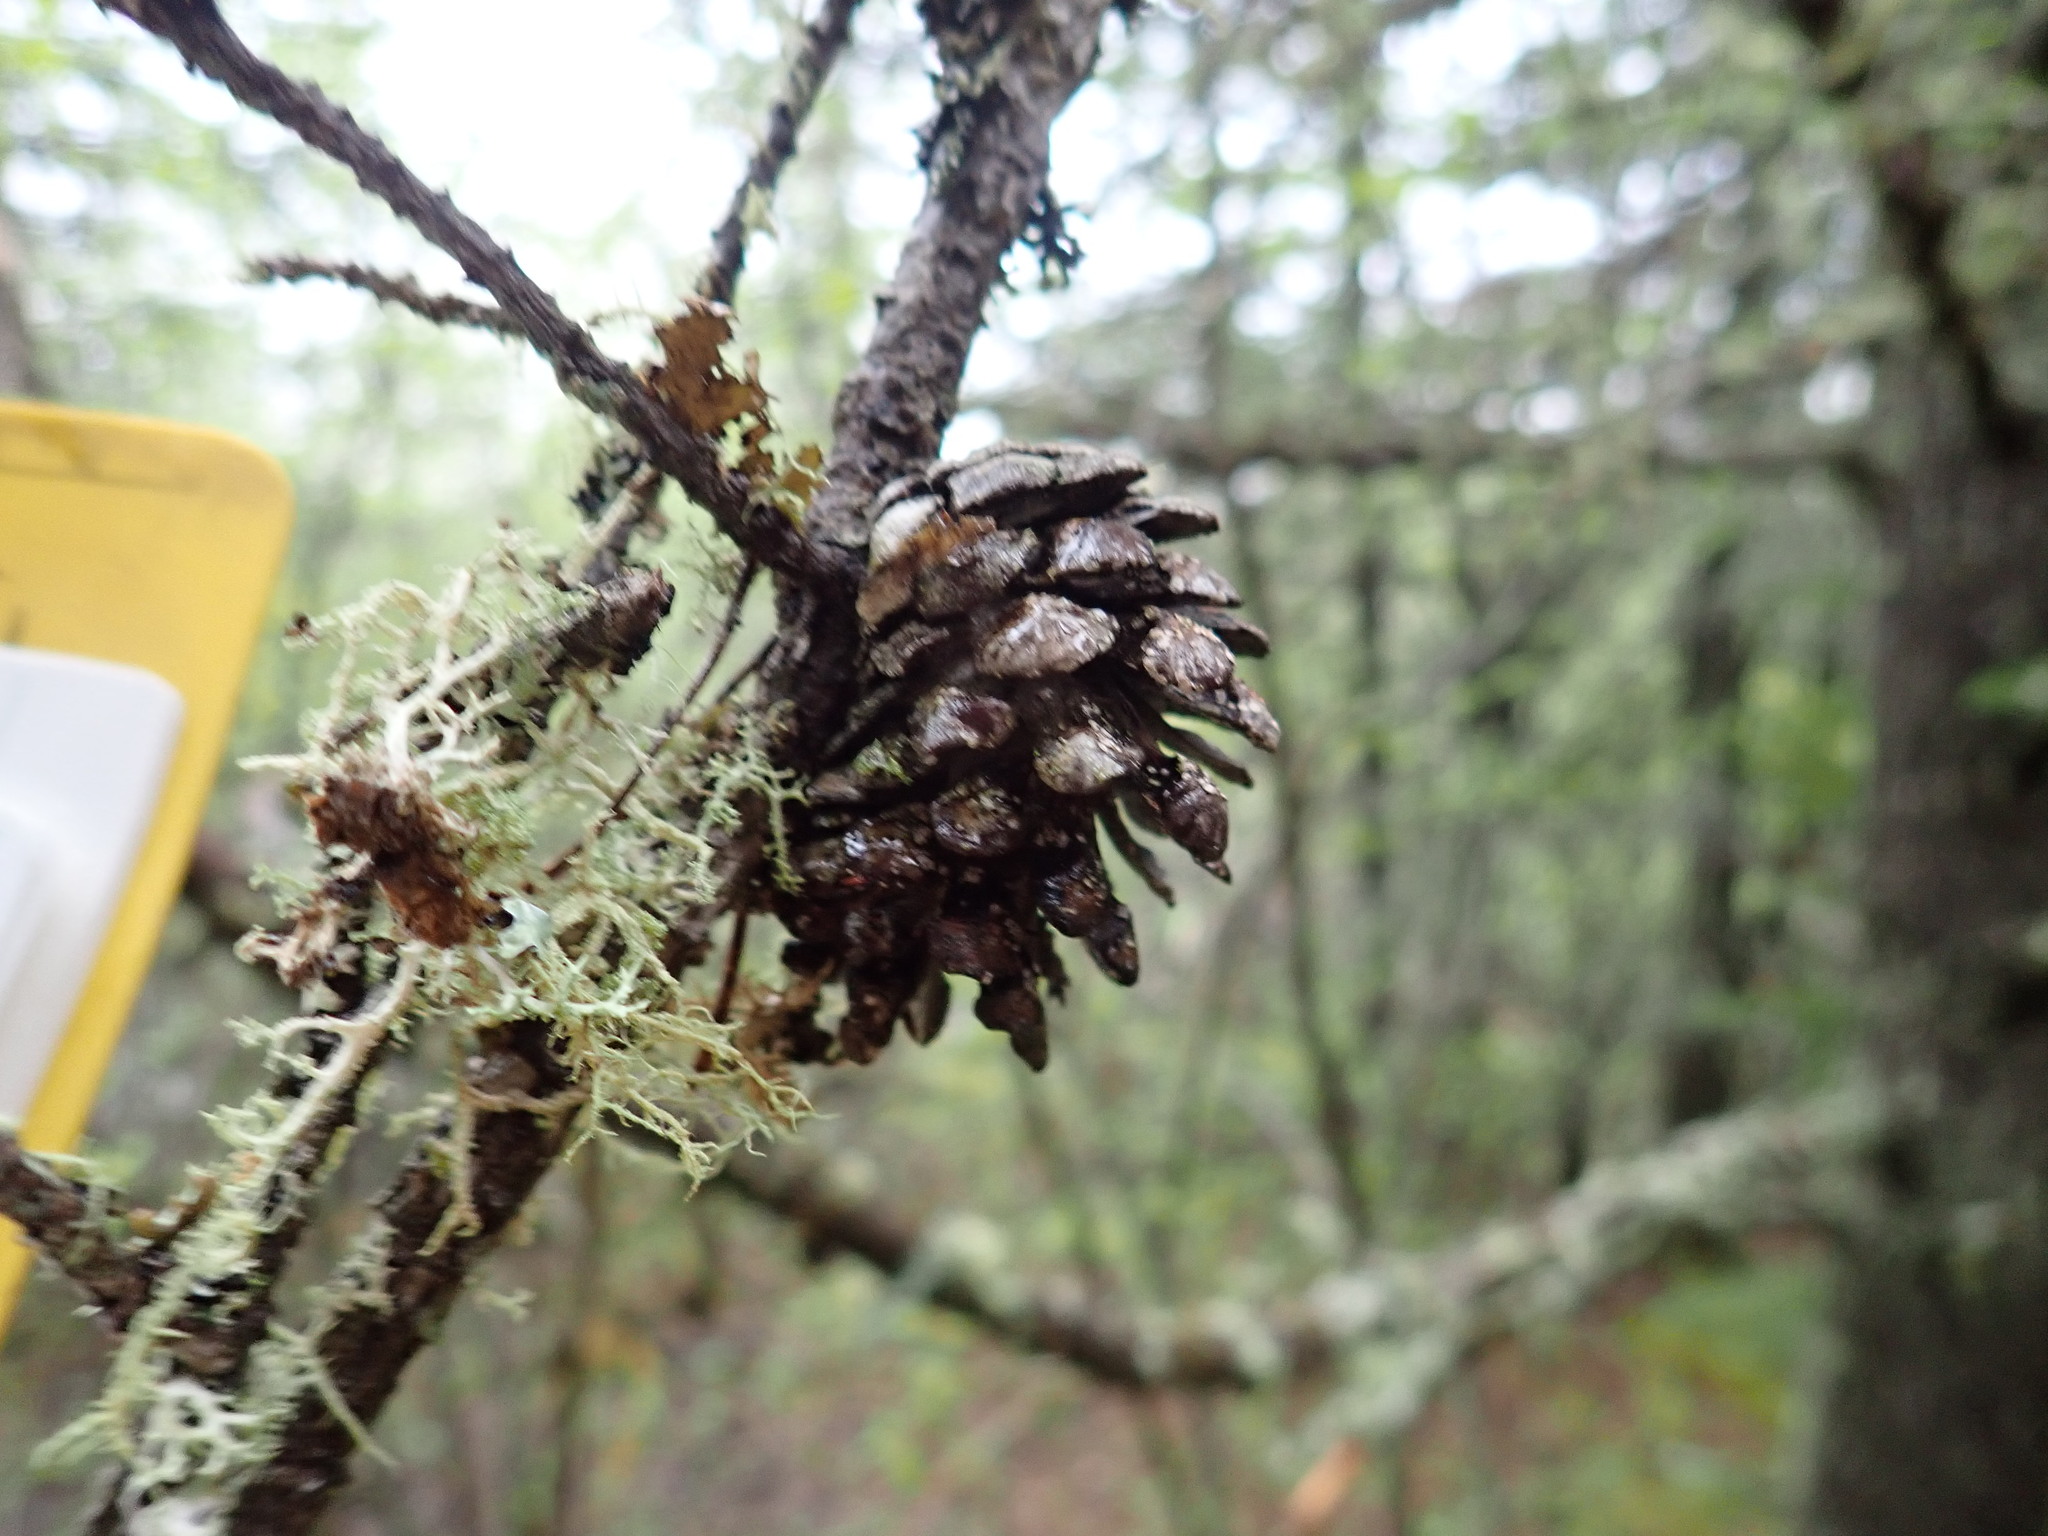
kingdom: Plantae
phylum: Tracheophyta
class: Pinopsida
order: Pinales
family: Pinaceae
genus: Pinus
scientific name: Pinus banksiana
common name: Jack pine
